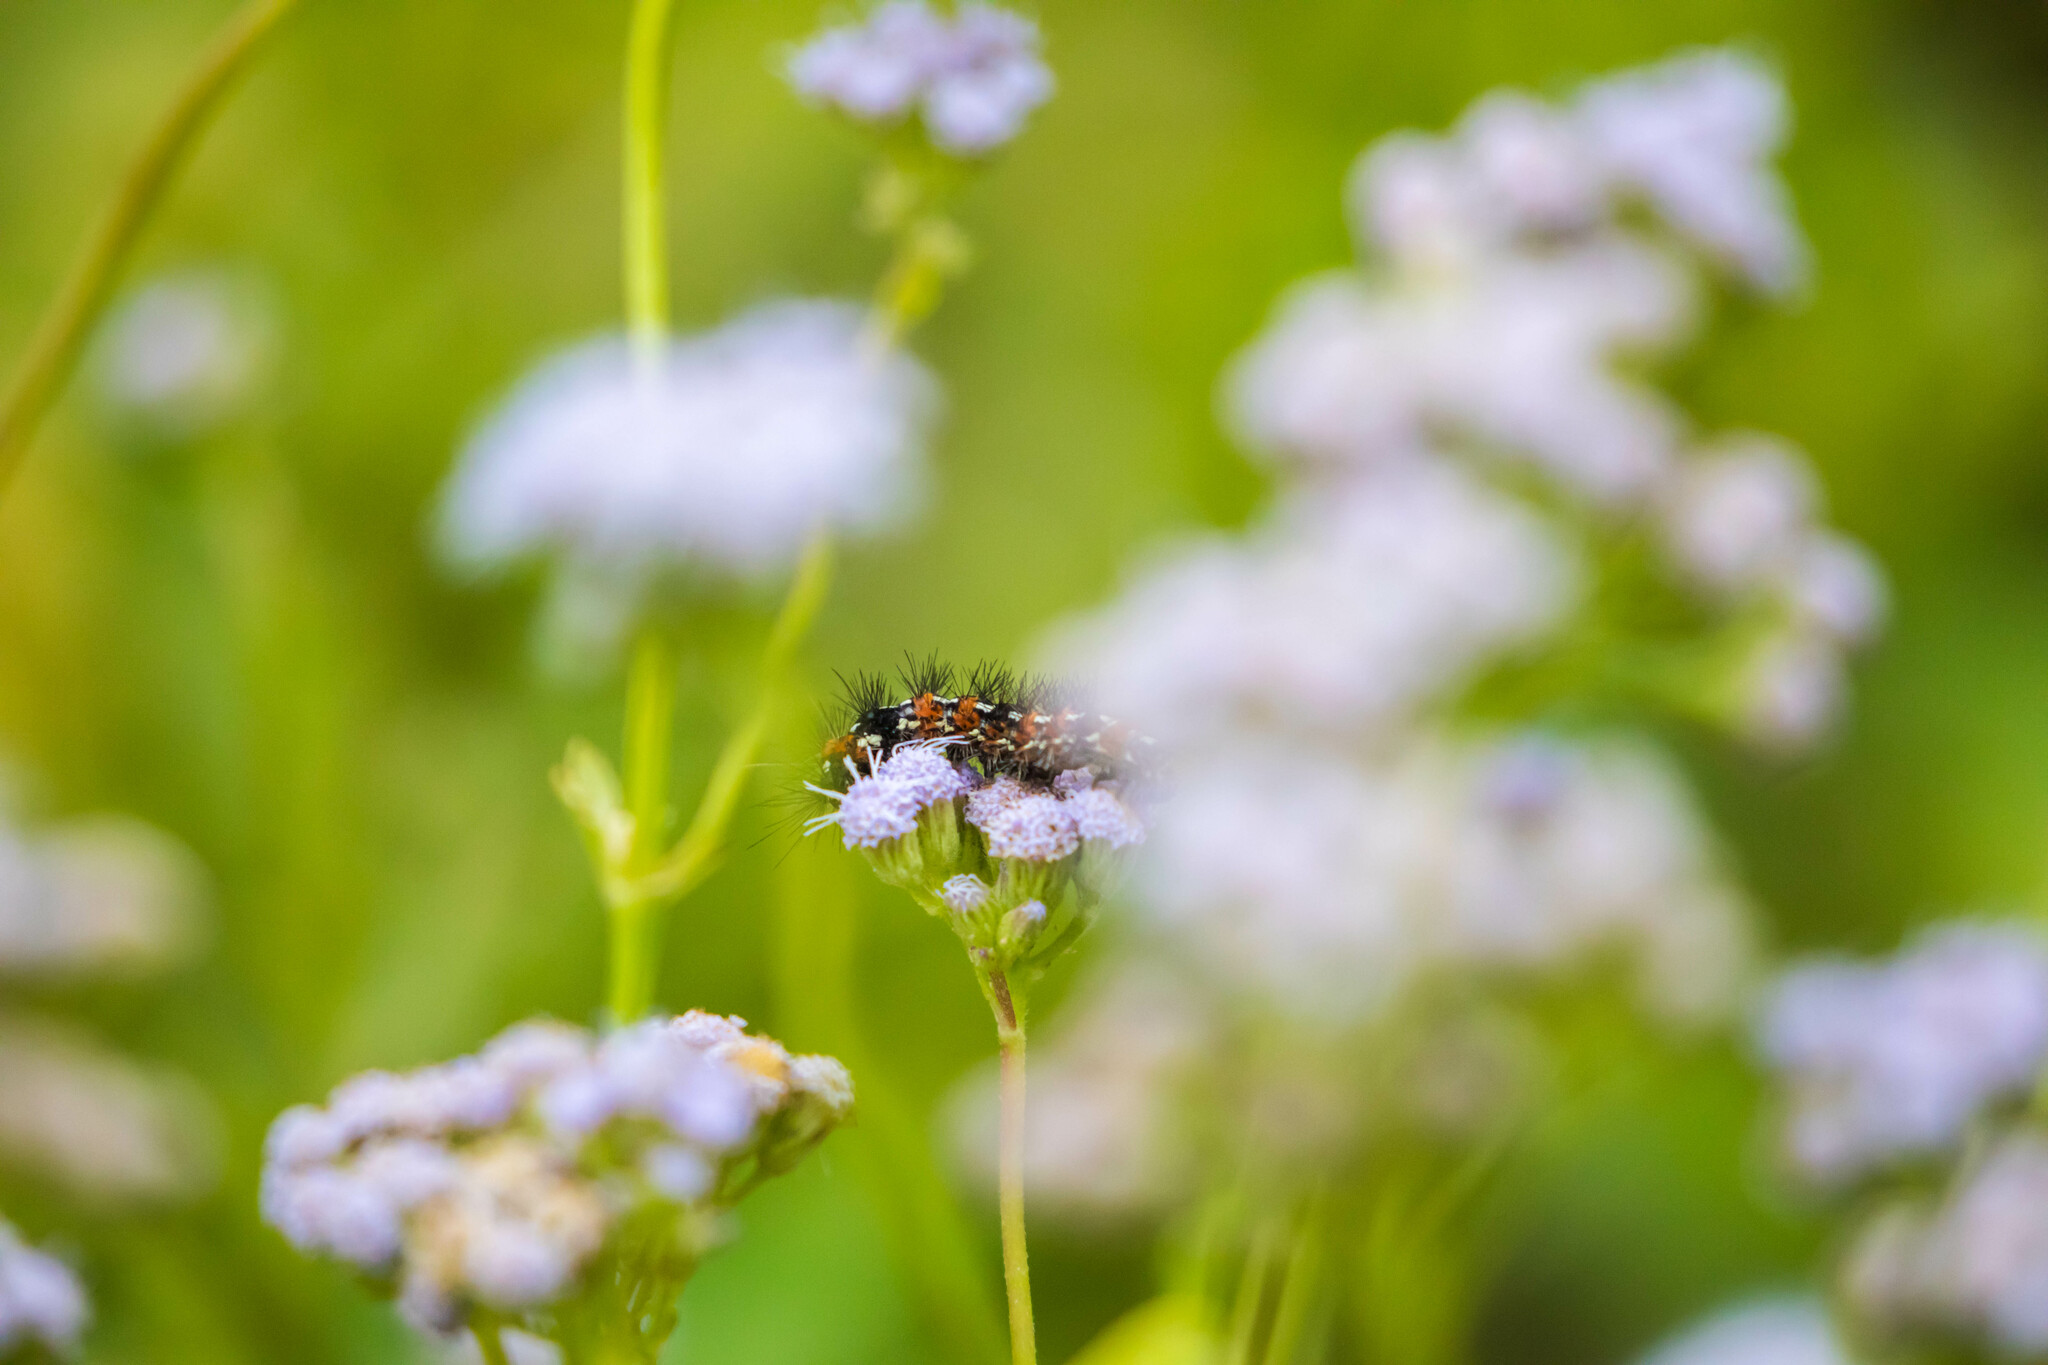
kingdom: Animalia
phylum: Arthropoda
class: Insecta
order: Lepidoptera
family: Erebidae
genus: Pareuchaetes
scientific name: Pareuchaetes insulata
